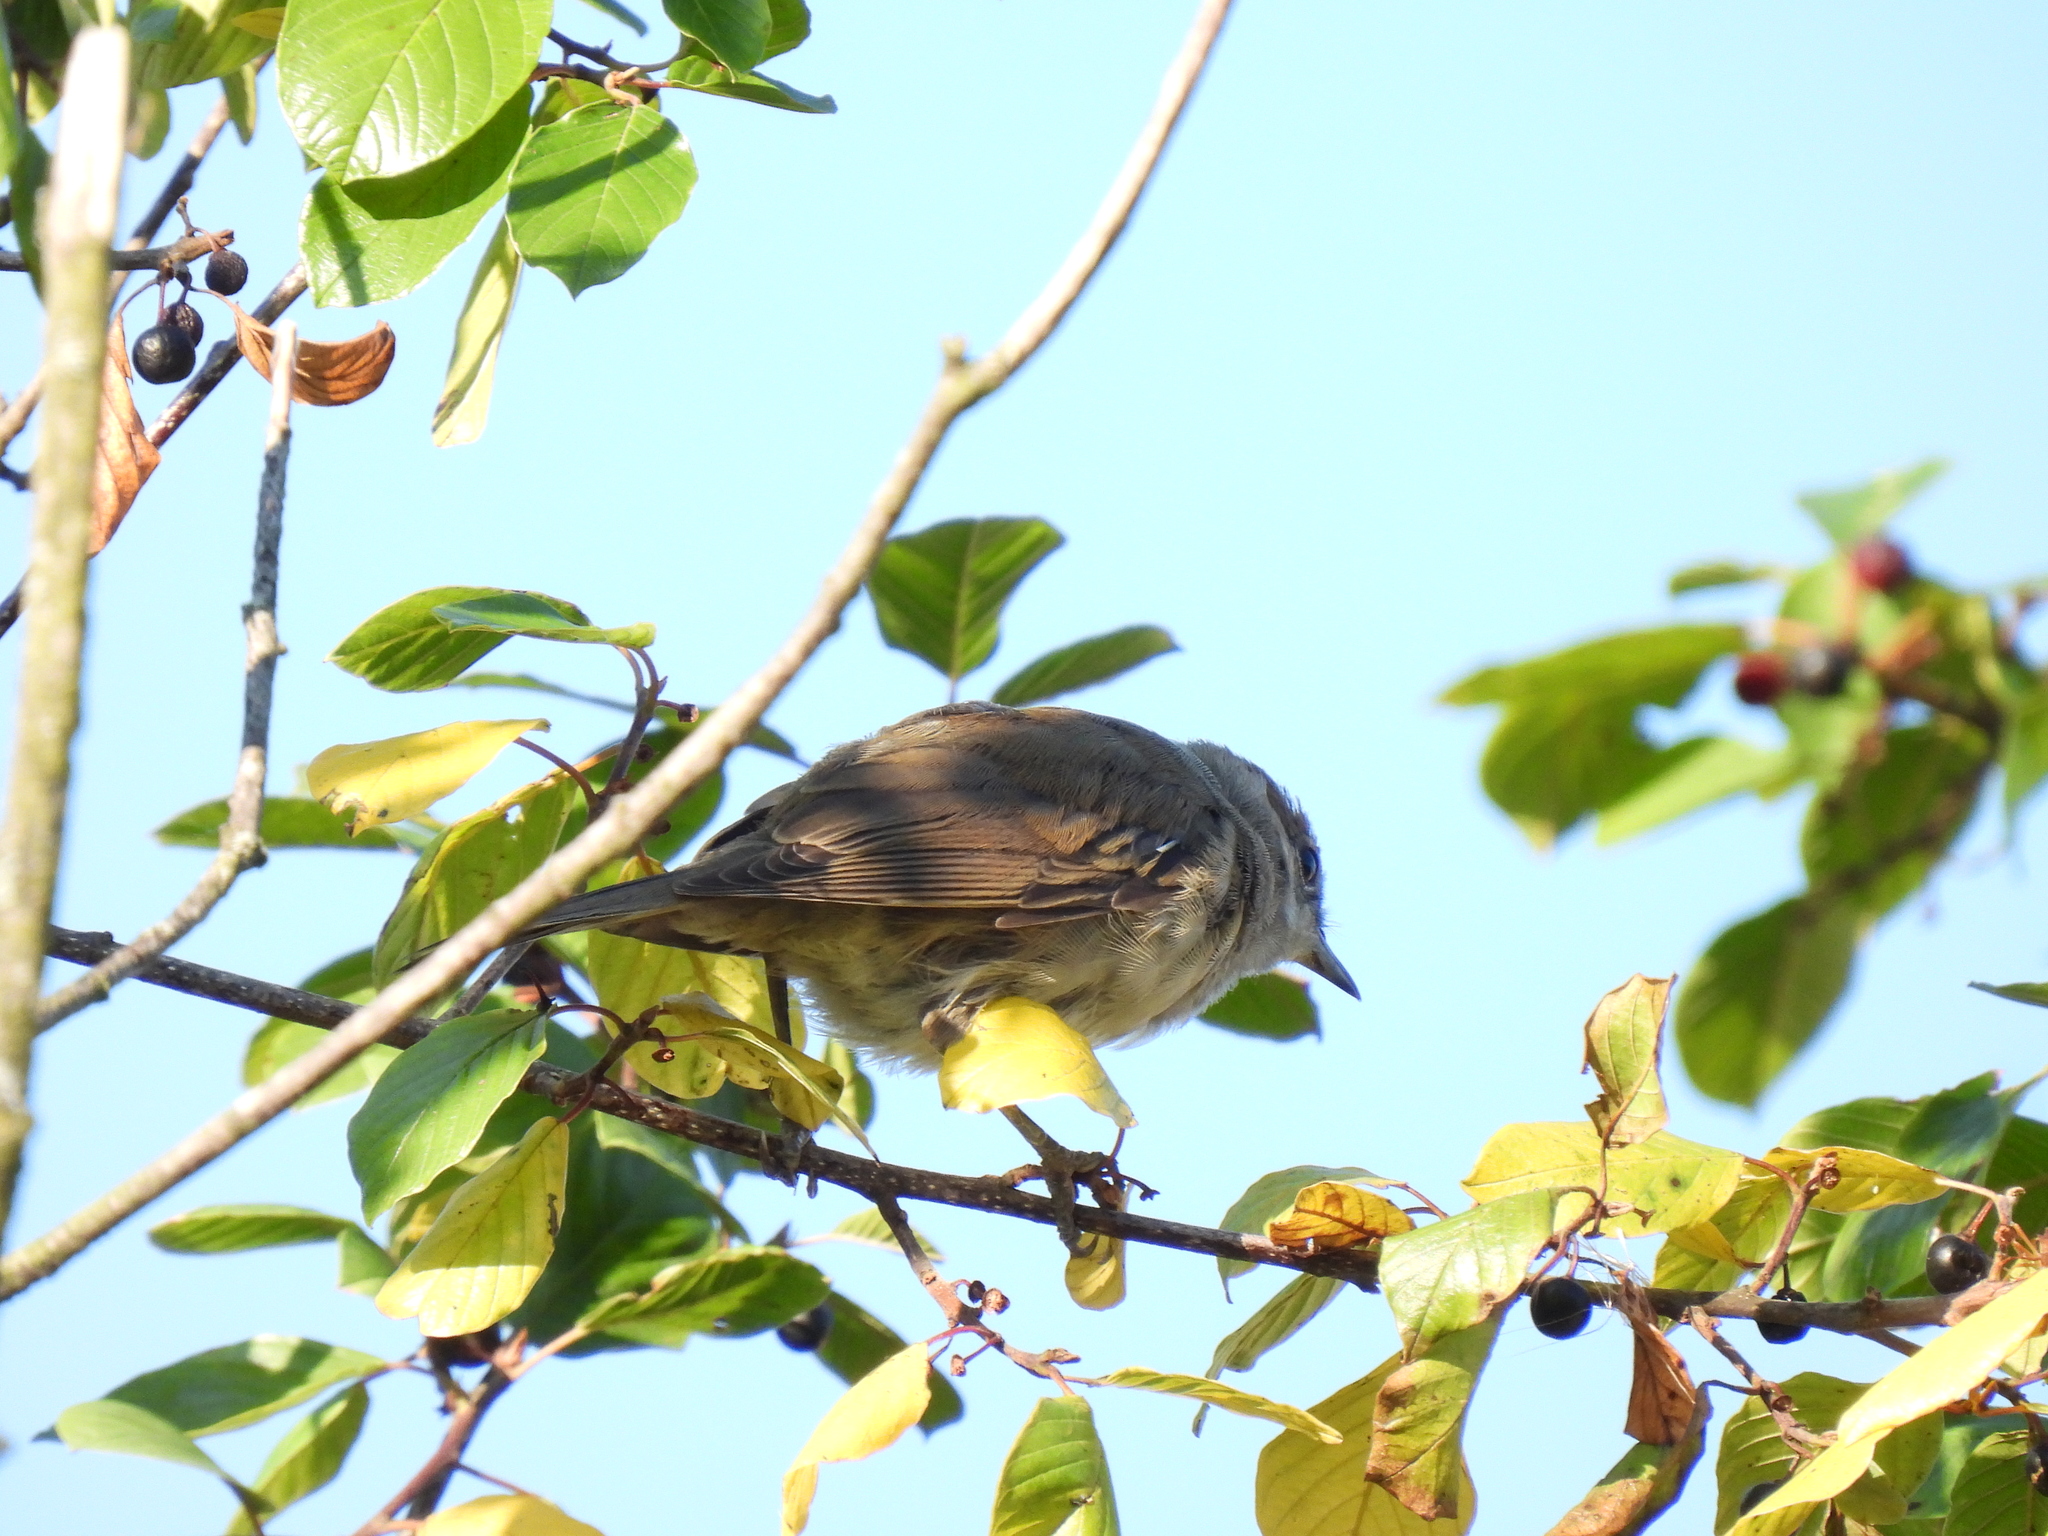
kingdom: Animalia
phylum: Chordata
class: Aves
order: Passeriformes
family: Sylviidae
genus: Sylvia
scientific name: Sylvia atricapilla
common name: Eurasian blackcap
